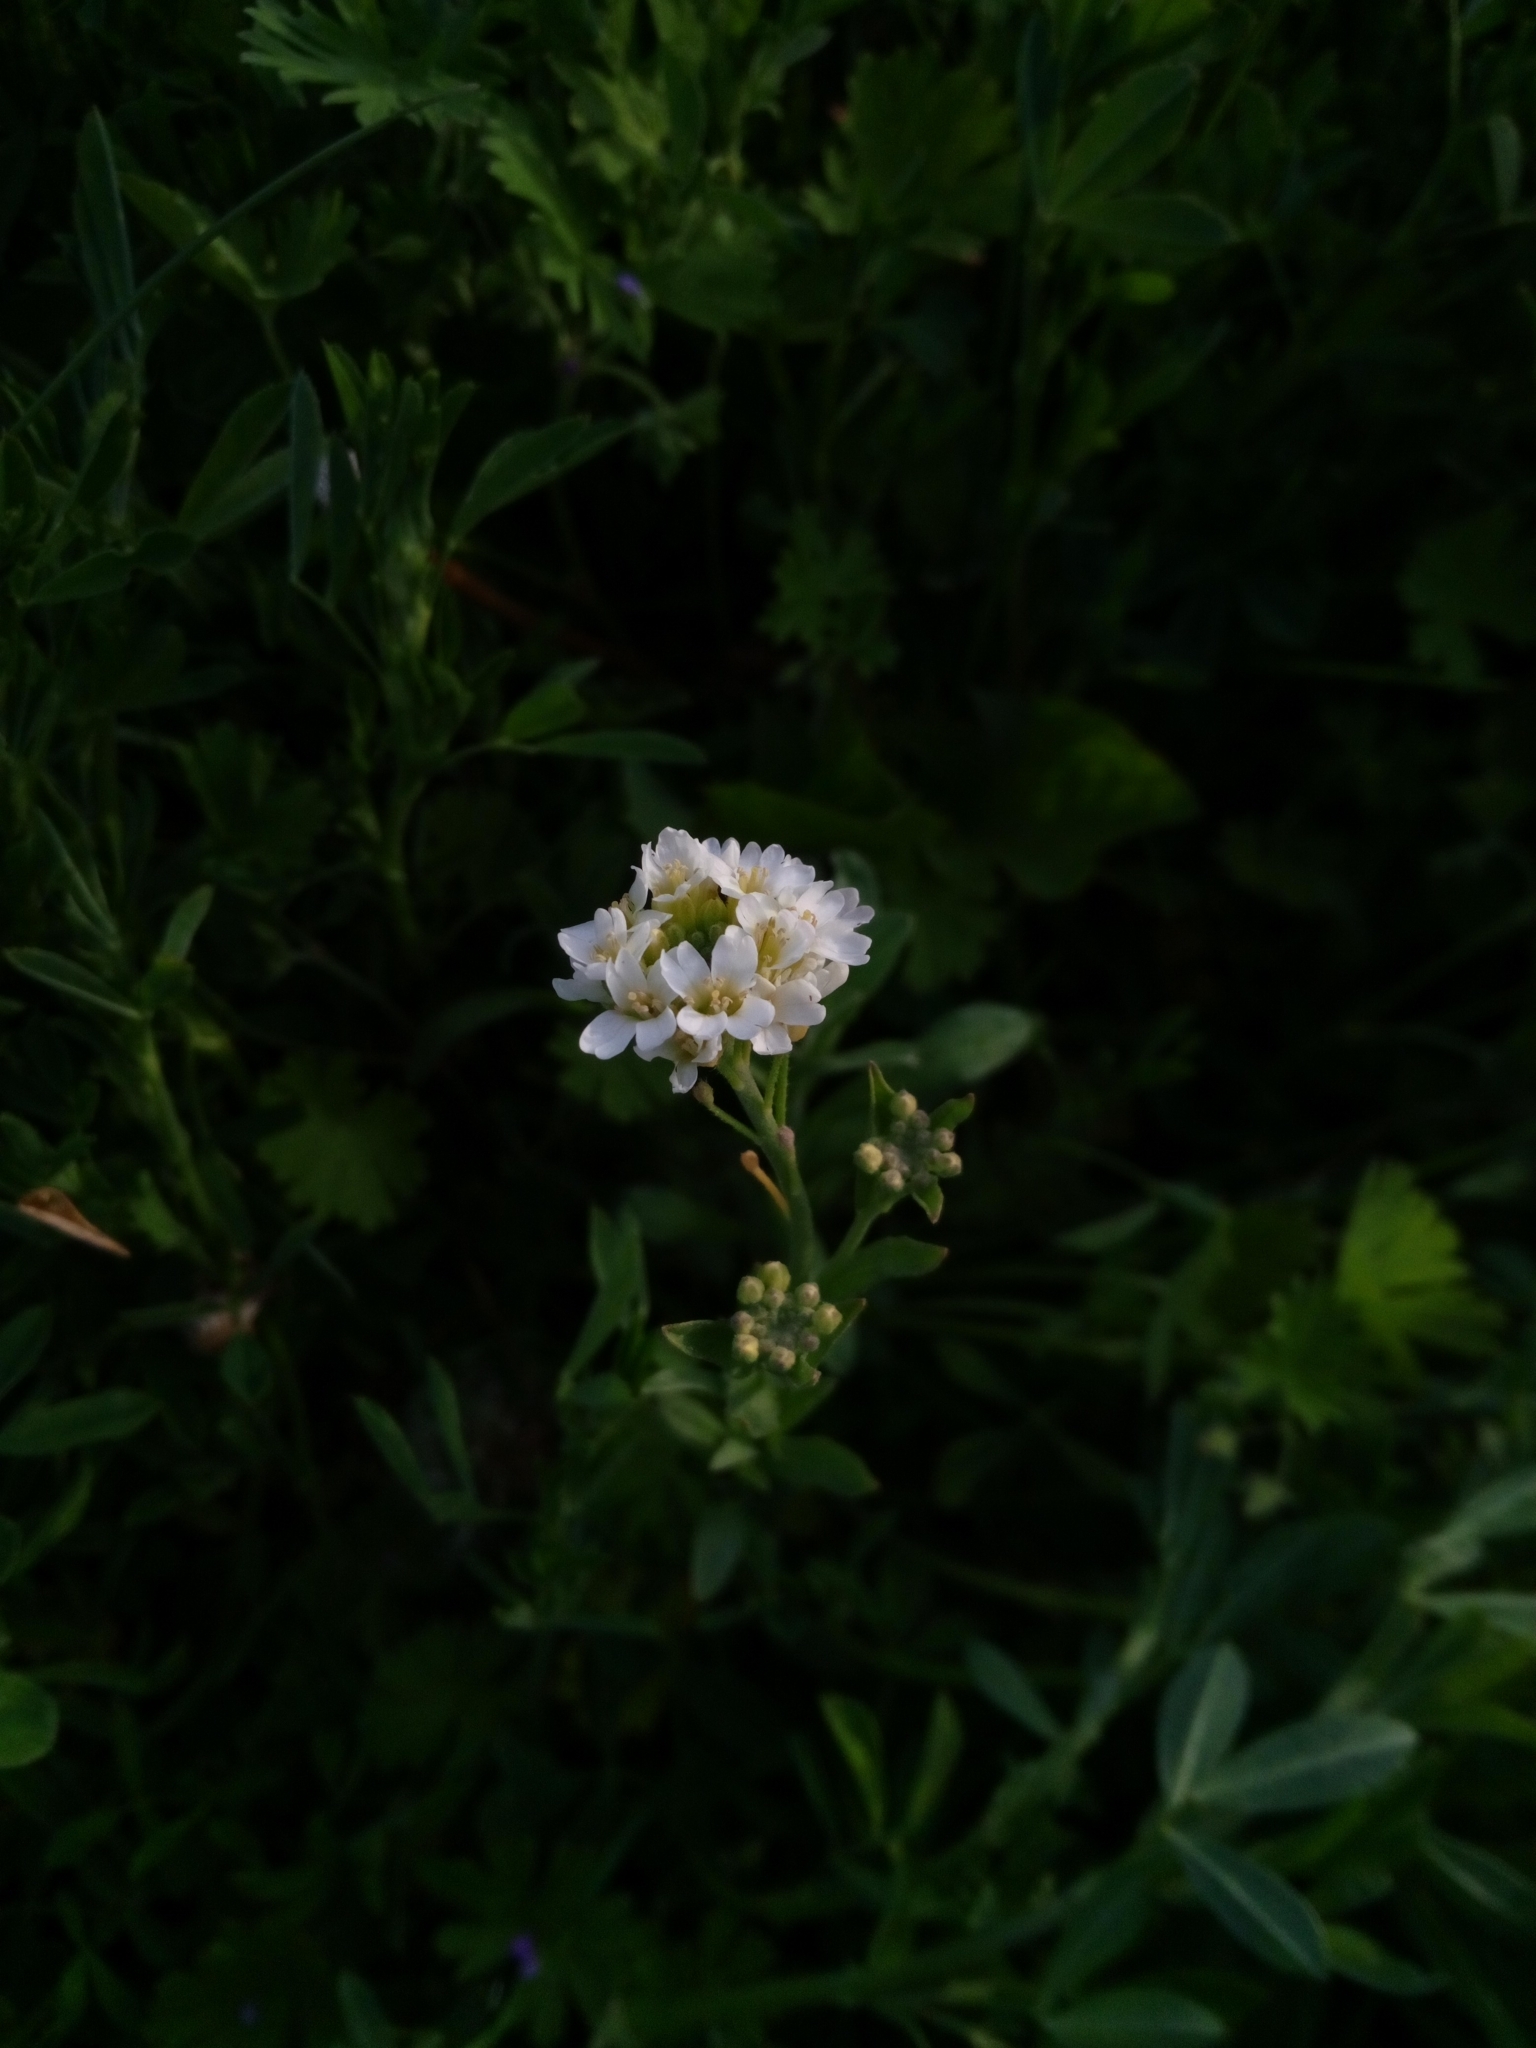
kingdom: Plantae
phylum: Tracheophyta
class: Magnoliopsida
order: Brassicales
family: Brassicaceae
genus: Berteroa
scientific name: Berteroa incana
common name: Hoary alison
